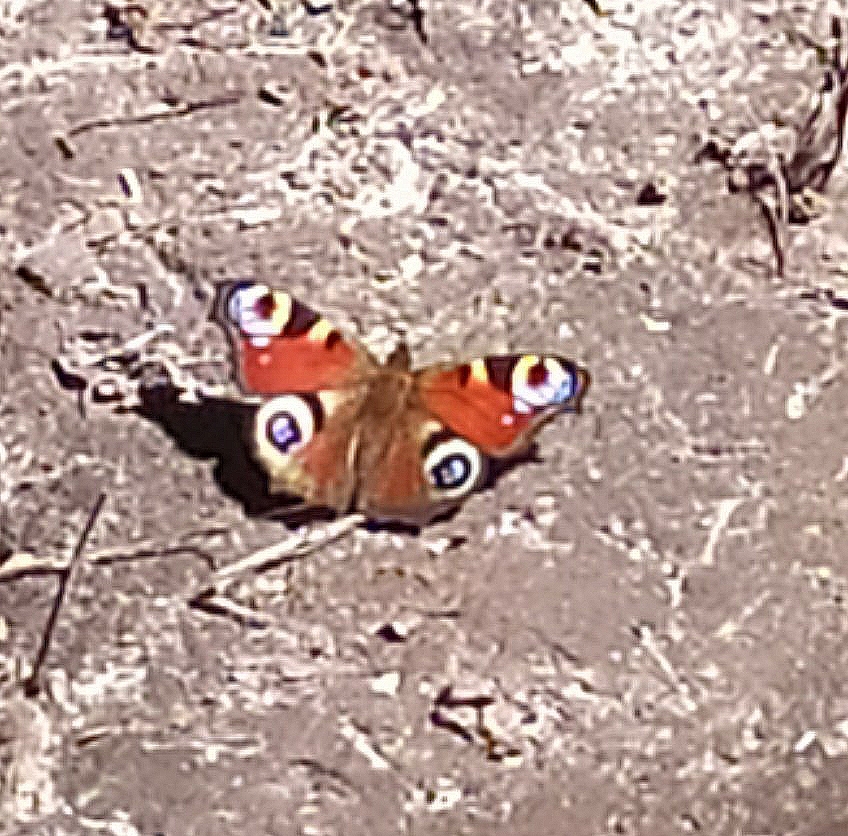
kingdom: Animalia
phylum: Arthropoda
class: Insecta
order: Lepidoptera
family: Nymphalidae
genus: Aglais
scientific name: Aglais io
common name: Peacock
